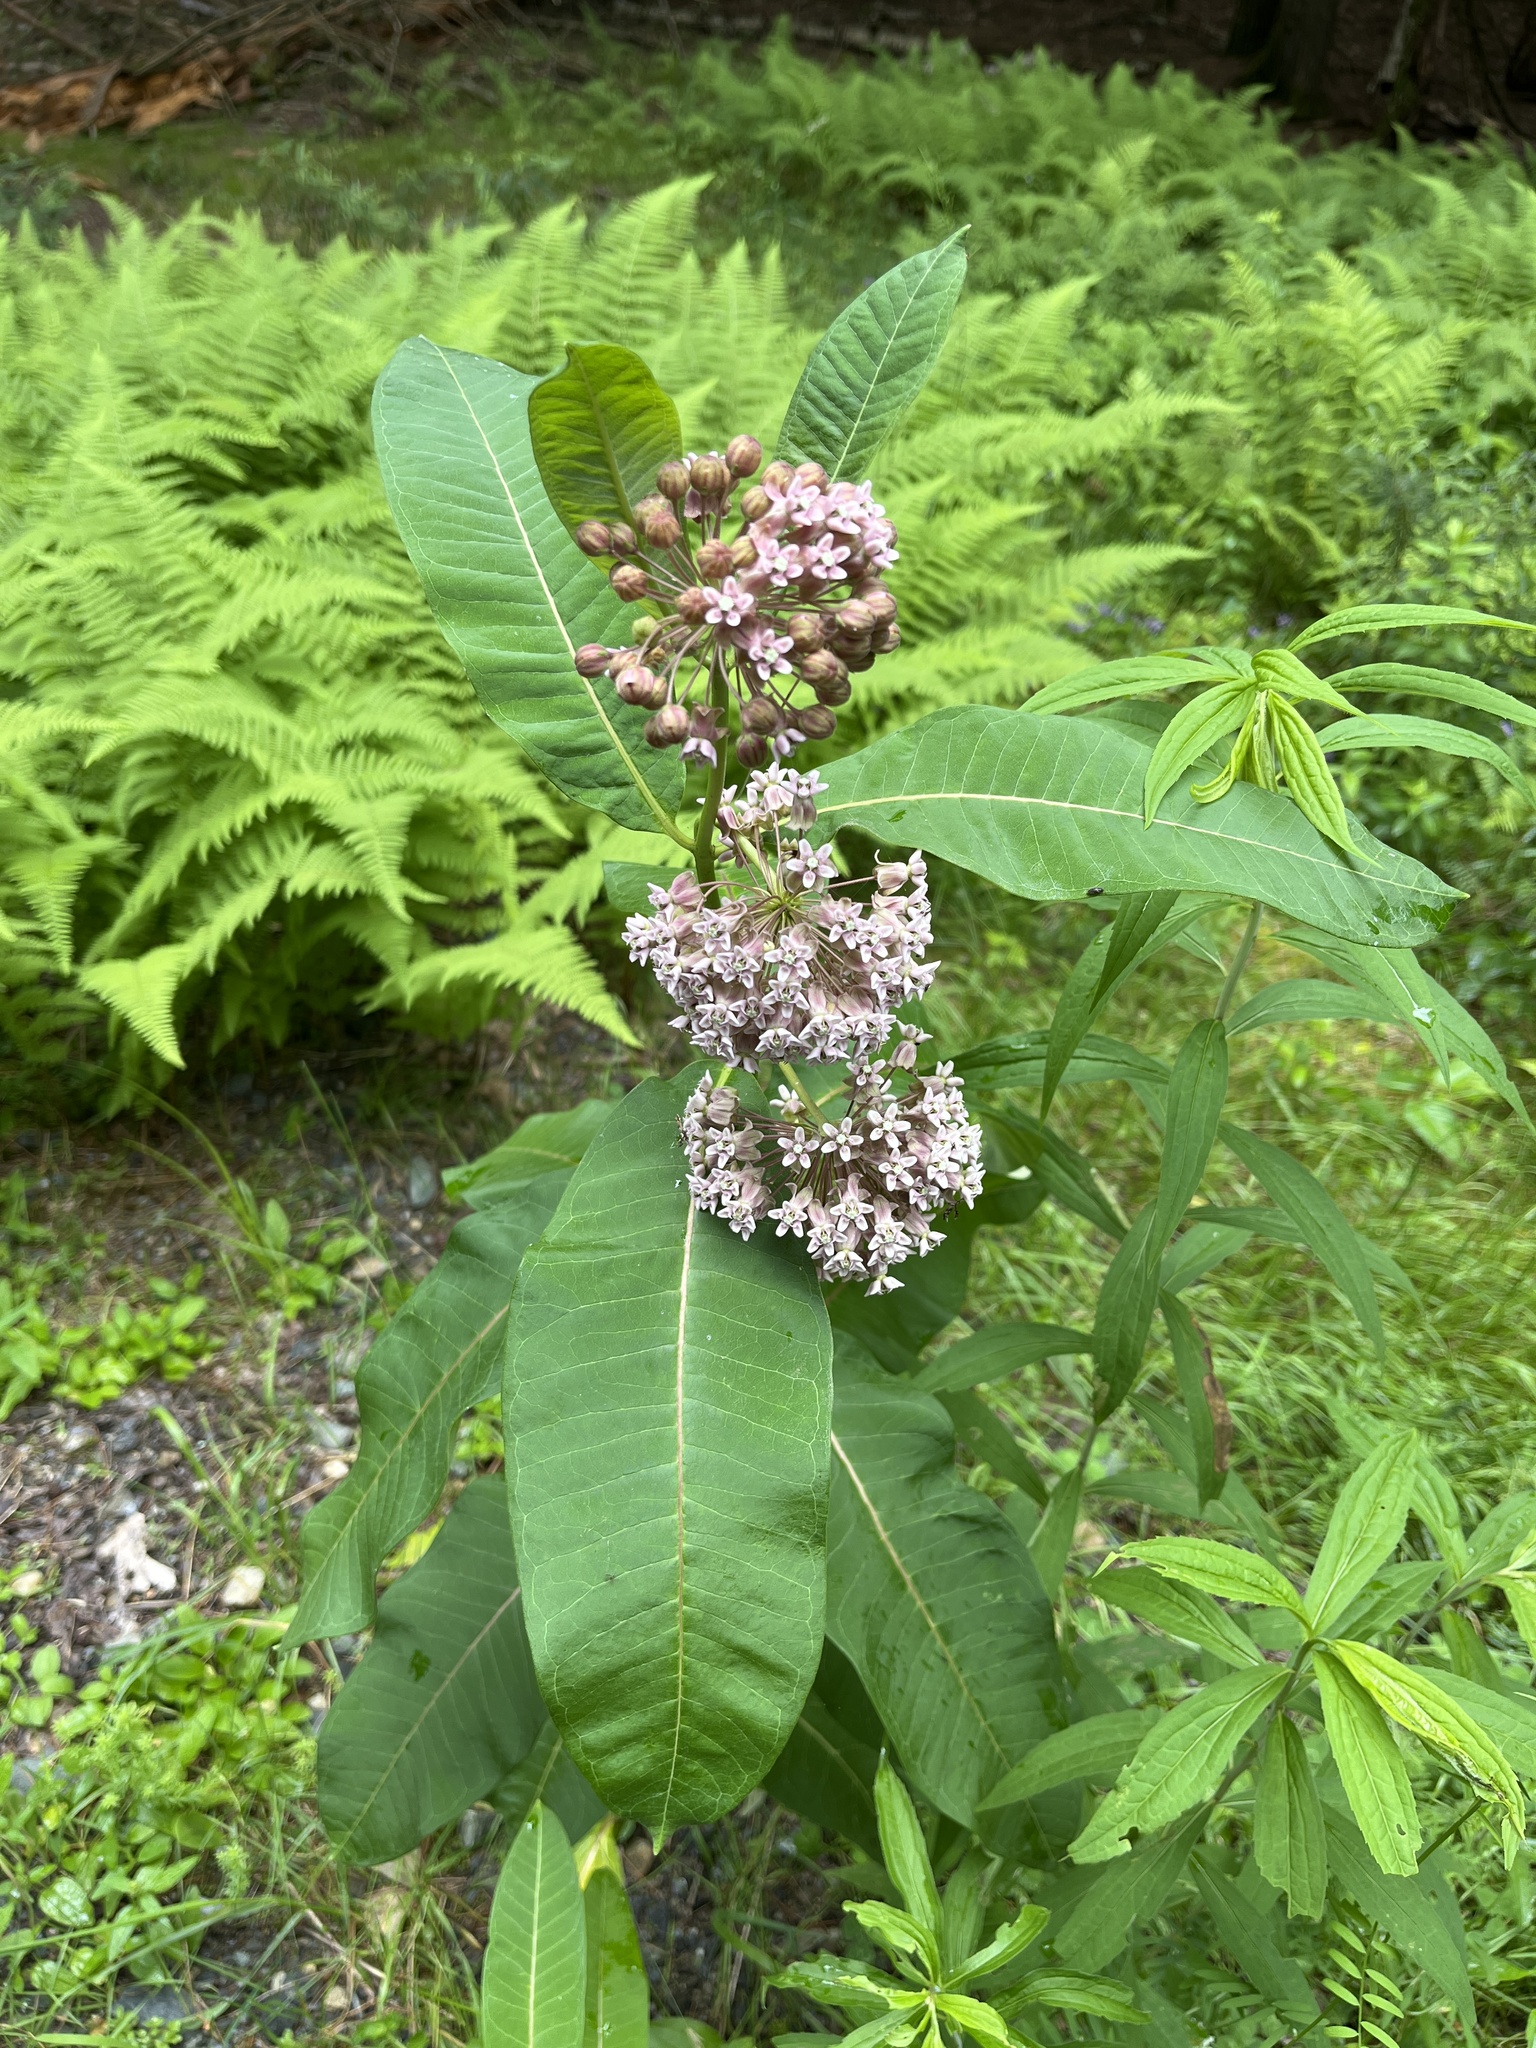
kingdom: Plantae
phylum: Tracheophyta
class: Magnoliopsida
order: Gentianales
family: Apocynaceae
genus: Asclepias
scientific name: Asclepias syriaca
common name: Common milkweed
